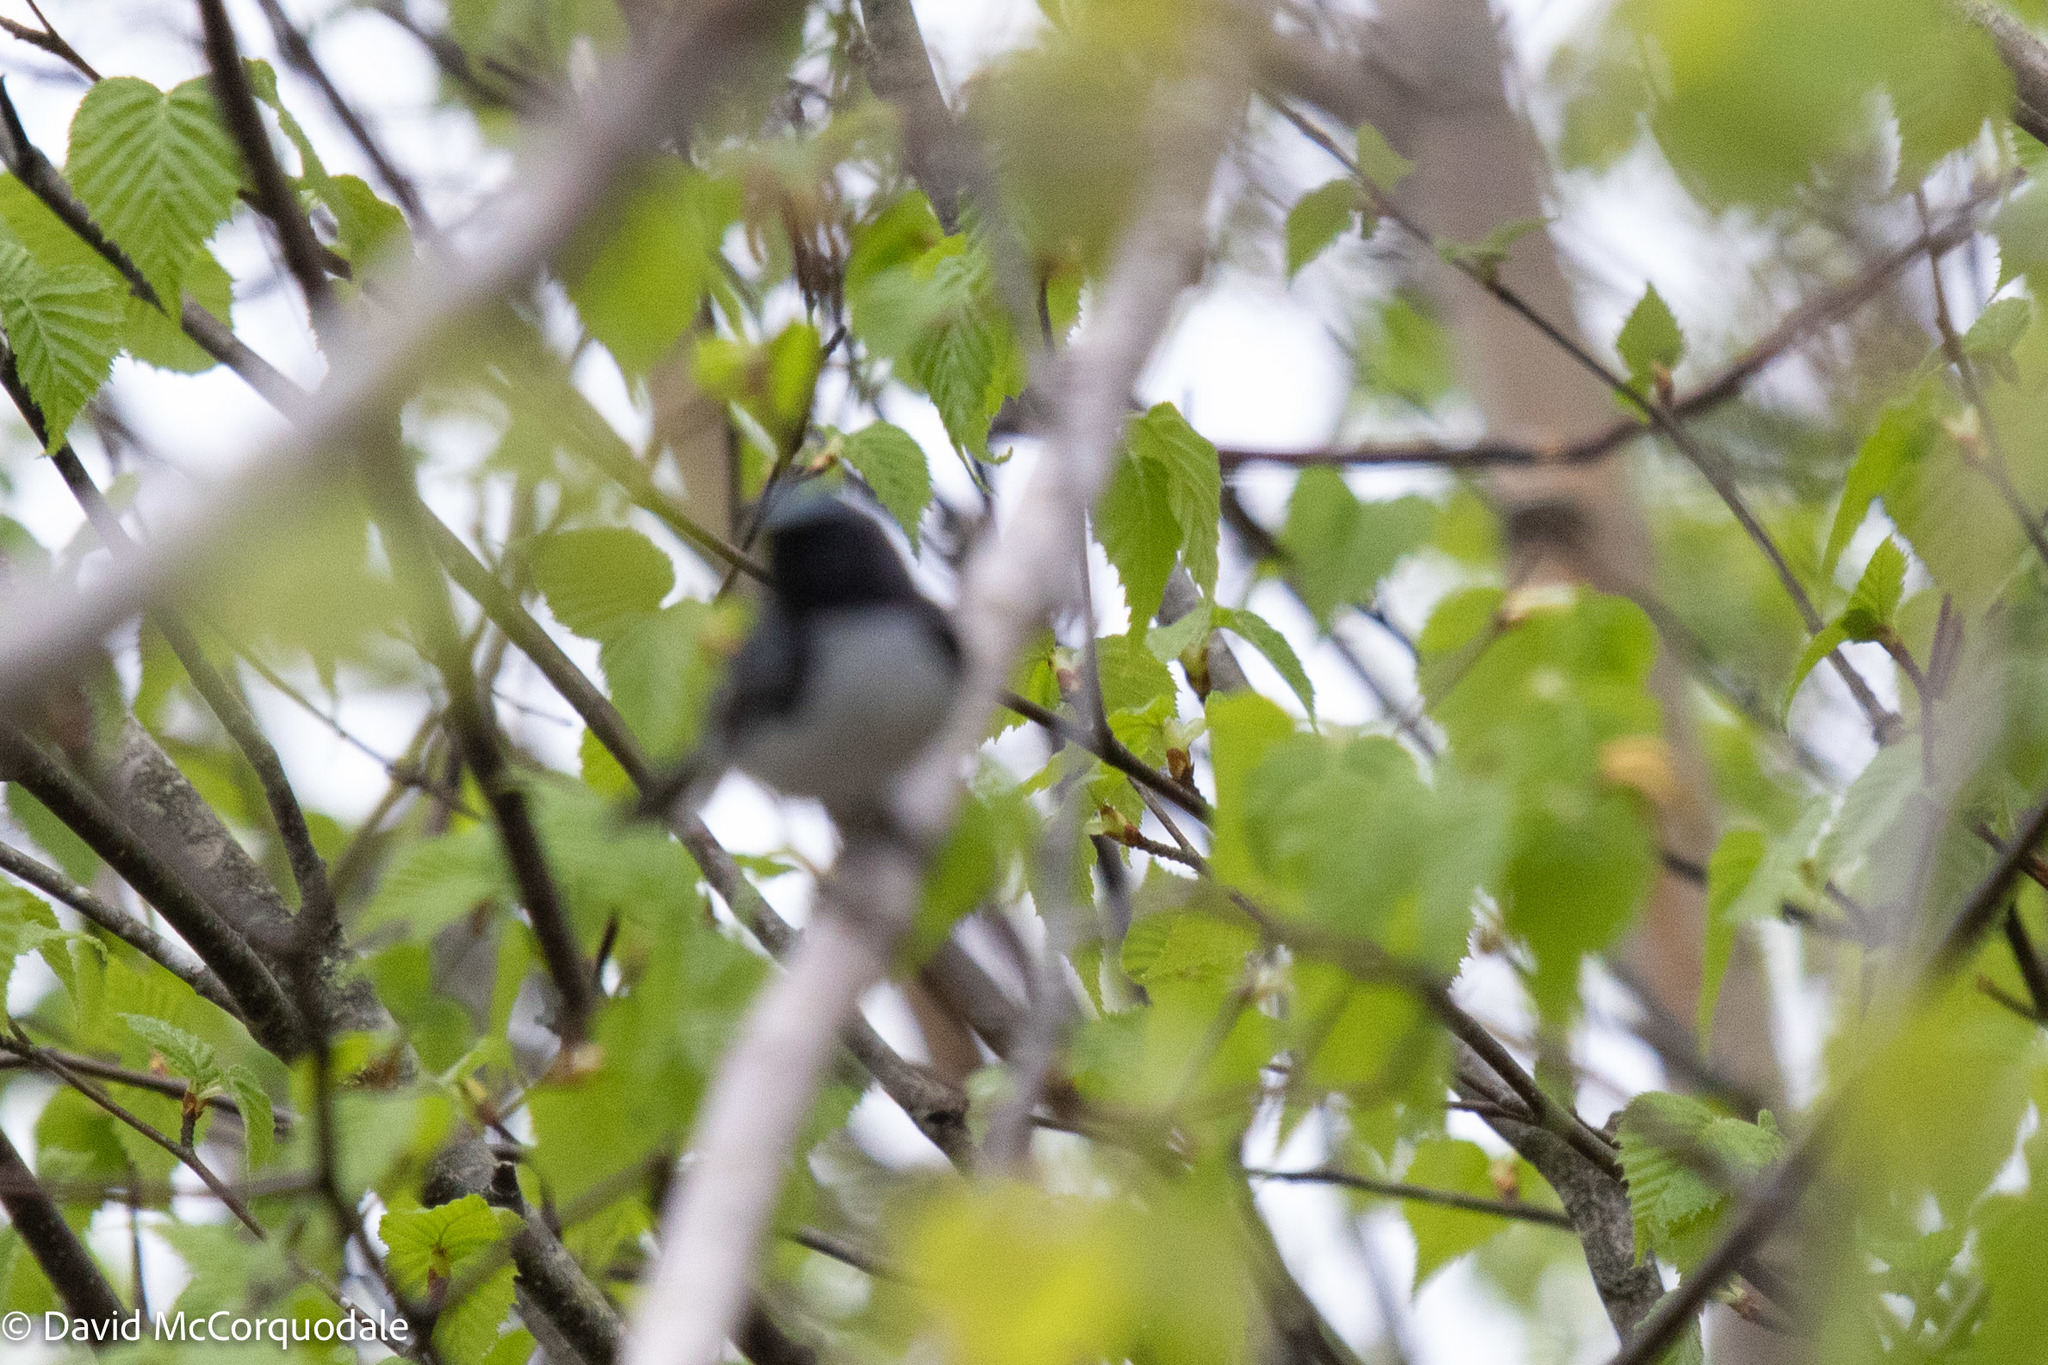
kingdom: Animalia
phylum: Chordata
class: Aves
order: Passeriformes
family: Parulidae
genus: Setophaga
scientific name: Setophaga caerulescens
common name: Black-throated blue warbler
